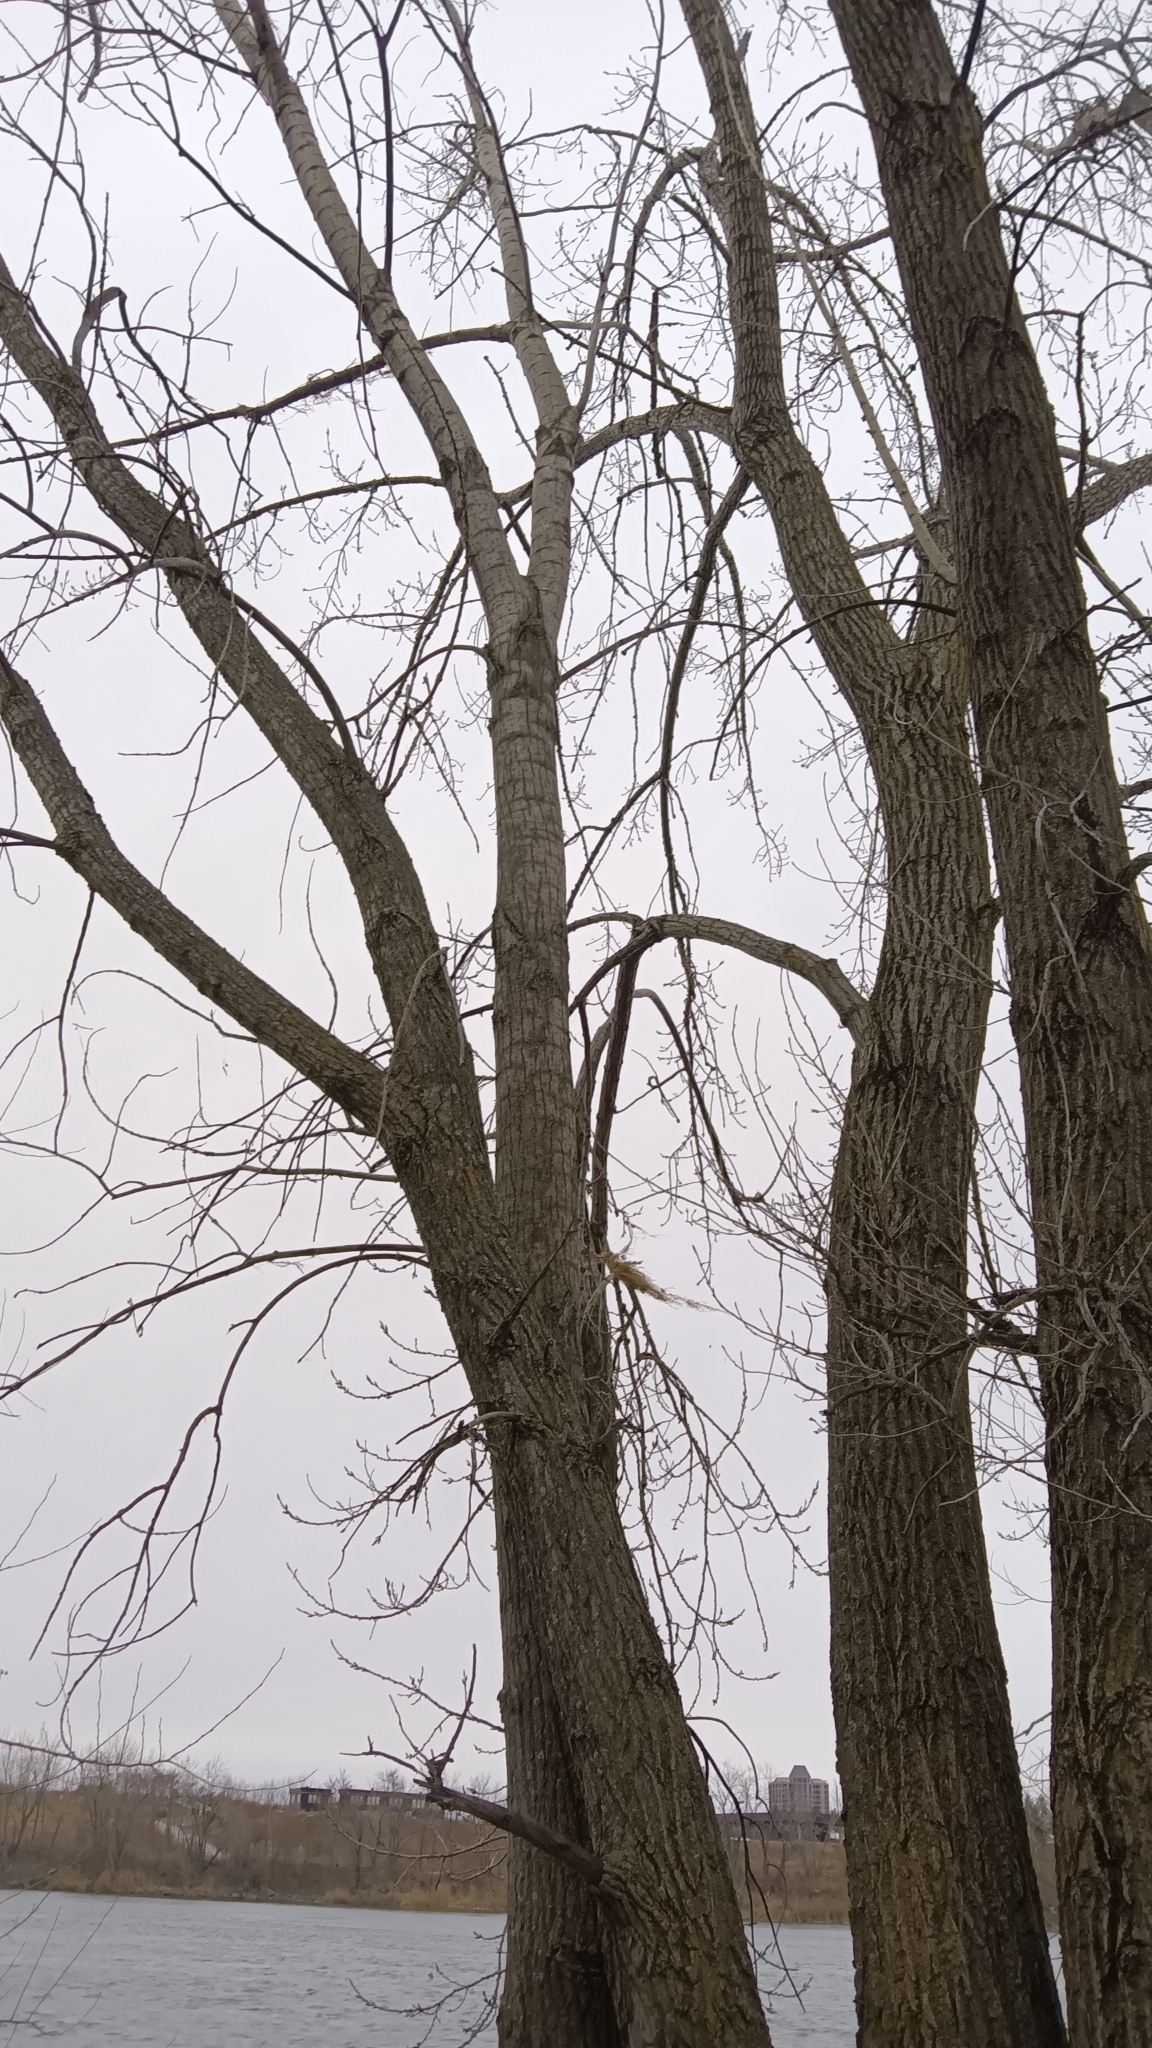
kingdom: Plantae
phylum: Tracheophyta
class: Magnoliopsida
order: Malpighiales
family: Salicaceae
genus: Populus
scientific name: Populus deltoides
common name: Eastern cottonwood
